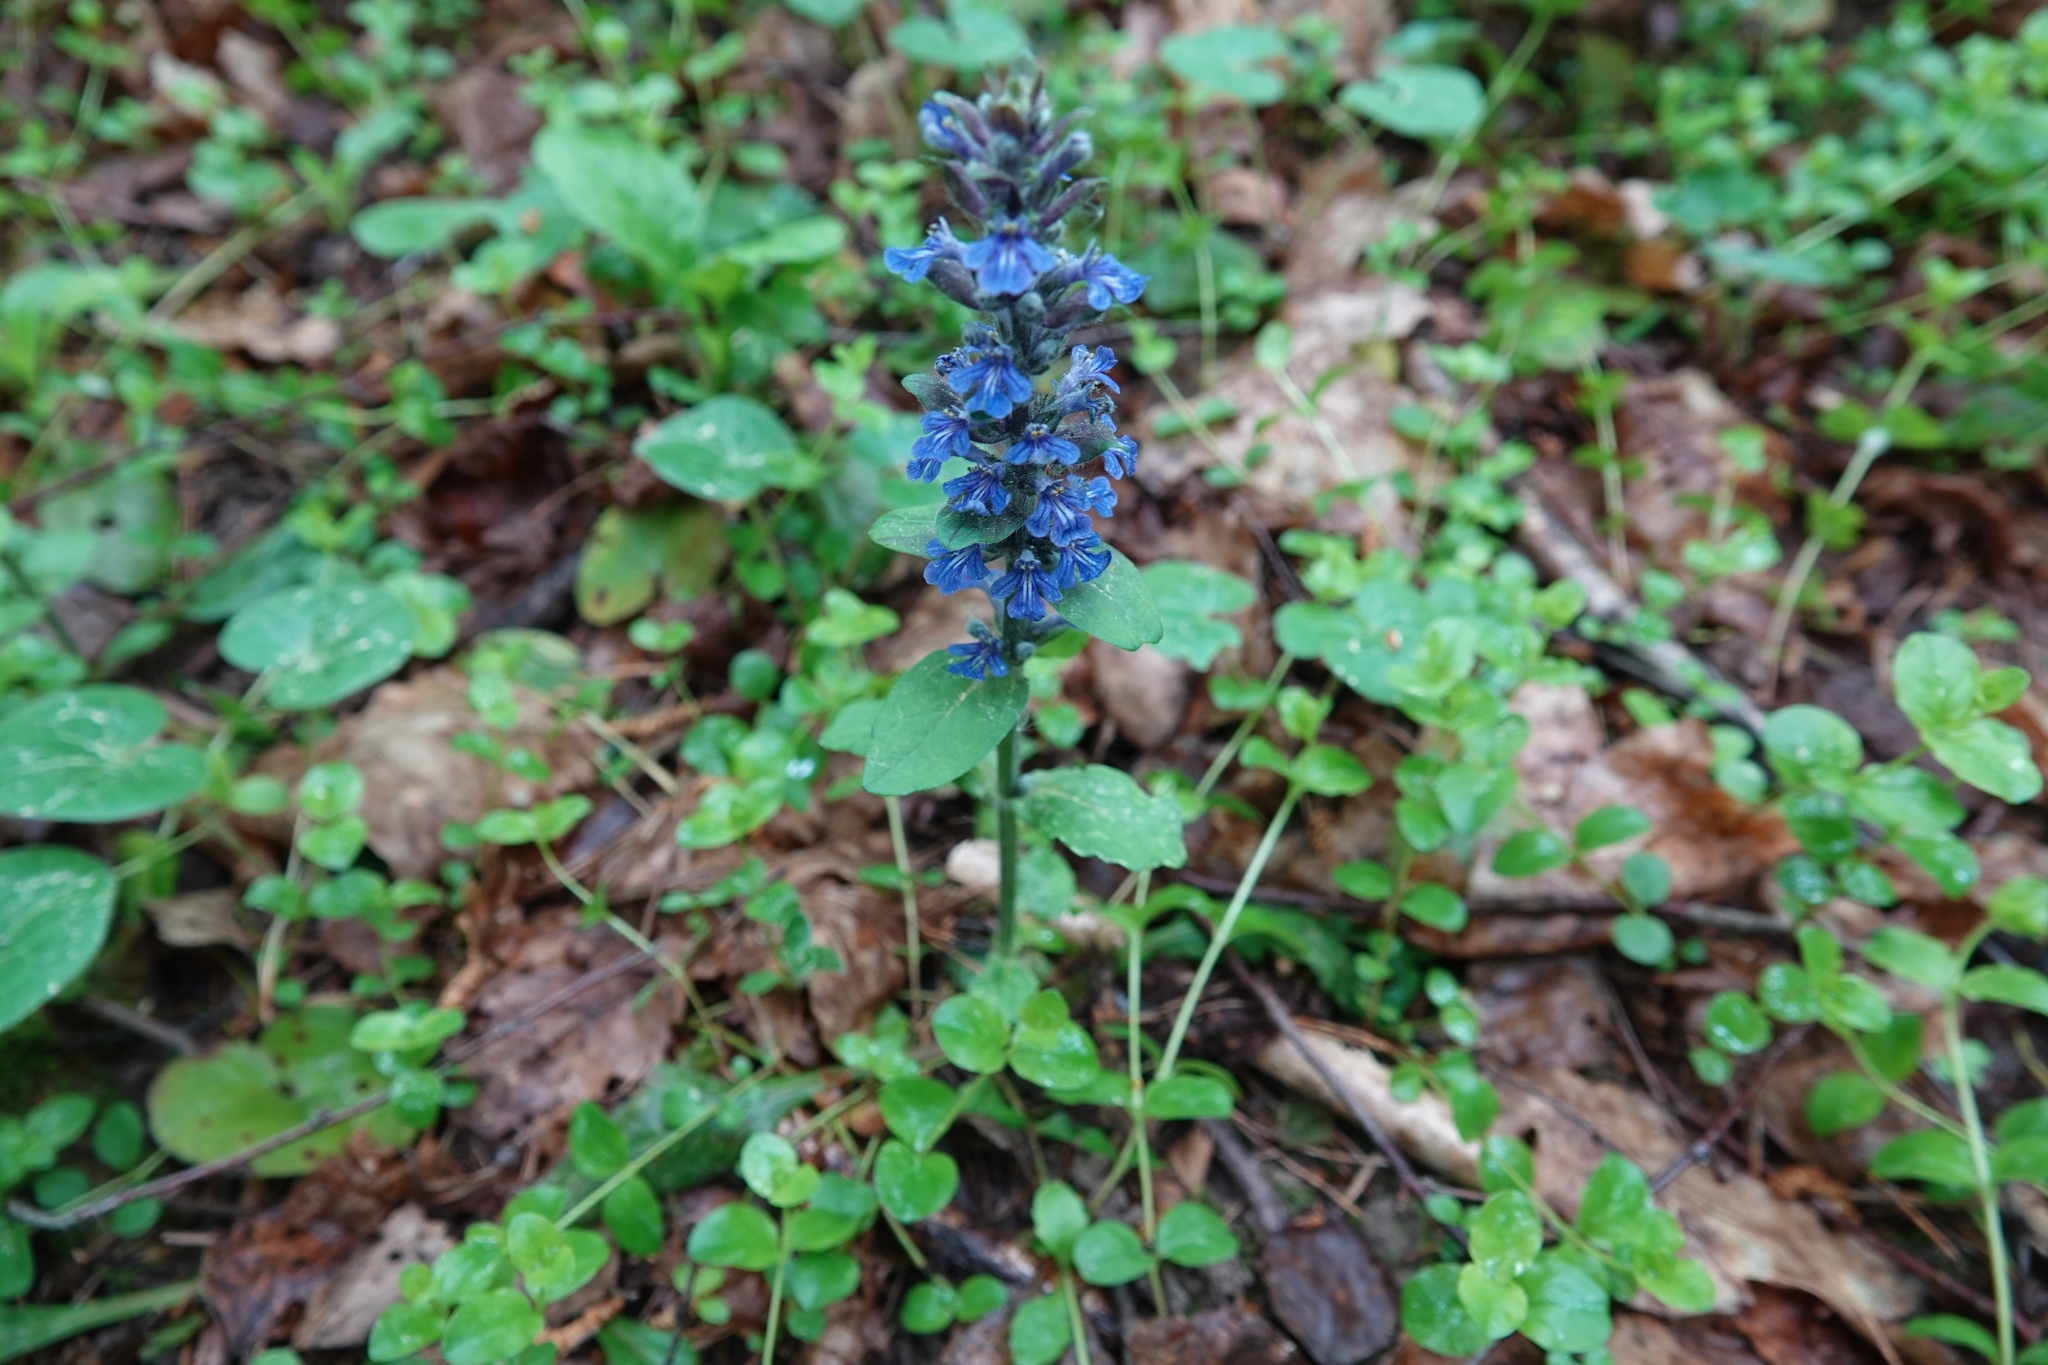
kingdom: Plantae
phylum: Tracheophyta
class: Magnoliopsida
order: Lamiales
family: Lamiaceae
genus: Ajuga
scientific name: Ajuga reptans
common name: Bugle
